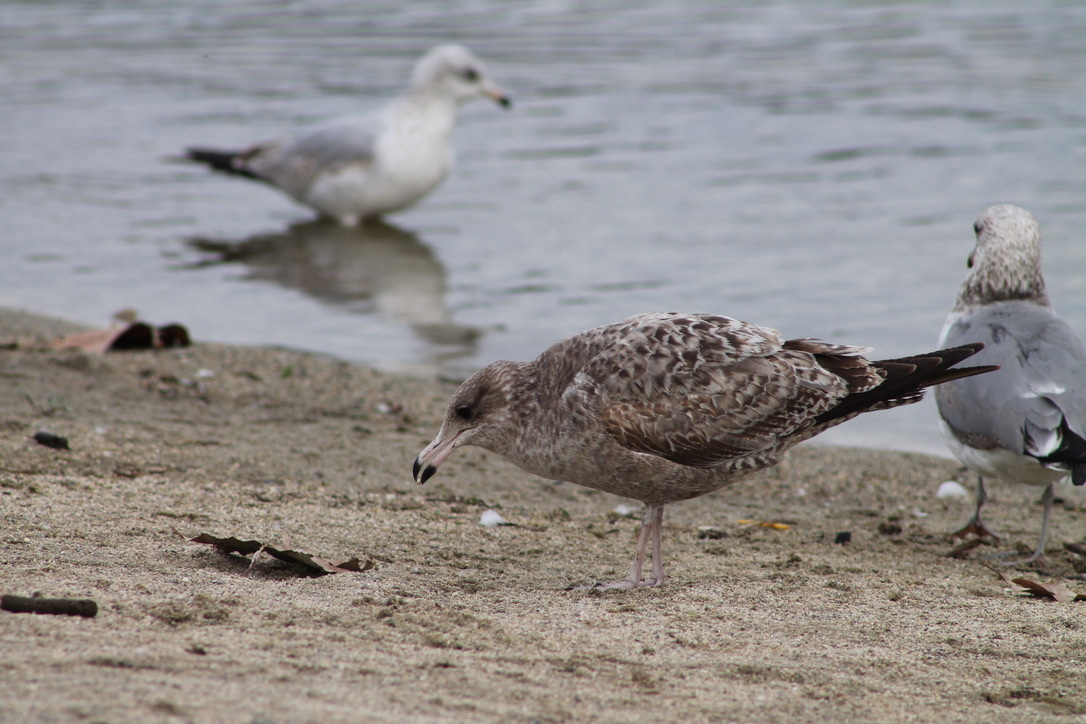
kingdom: Animalia
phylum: Chordata
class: Aves
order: Charadriiformes
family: Laridae
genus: Larus
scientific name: Larus californicus
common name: California gull
